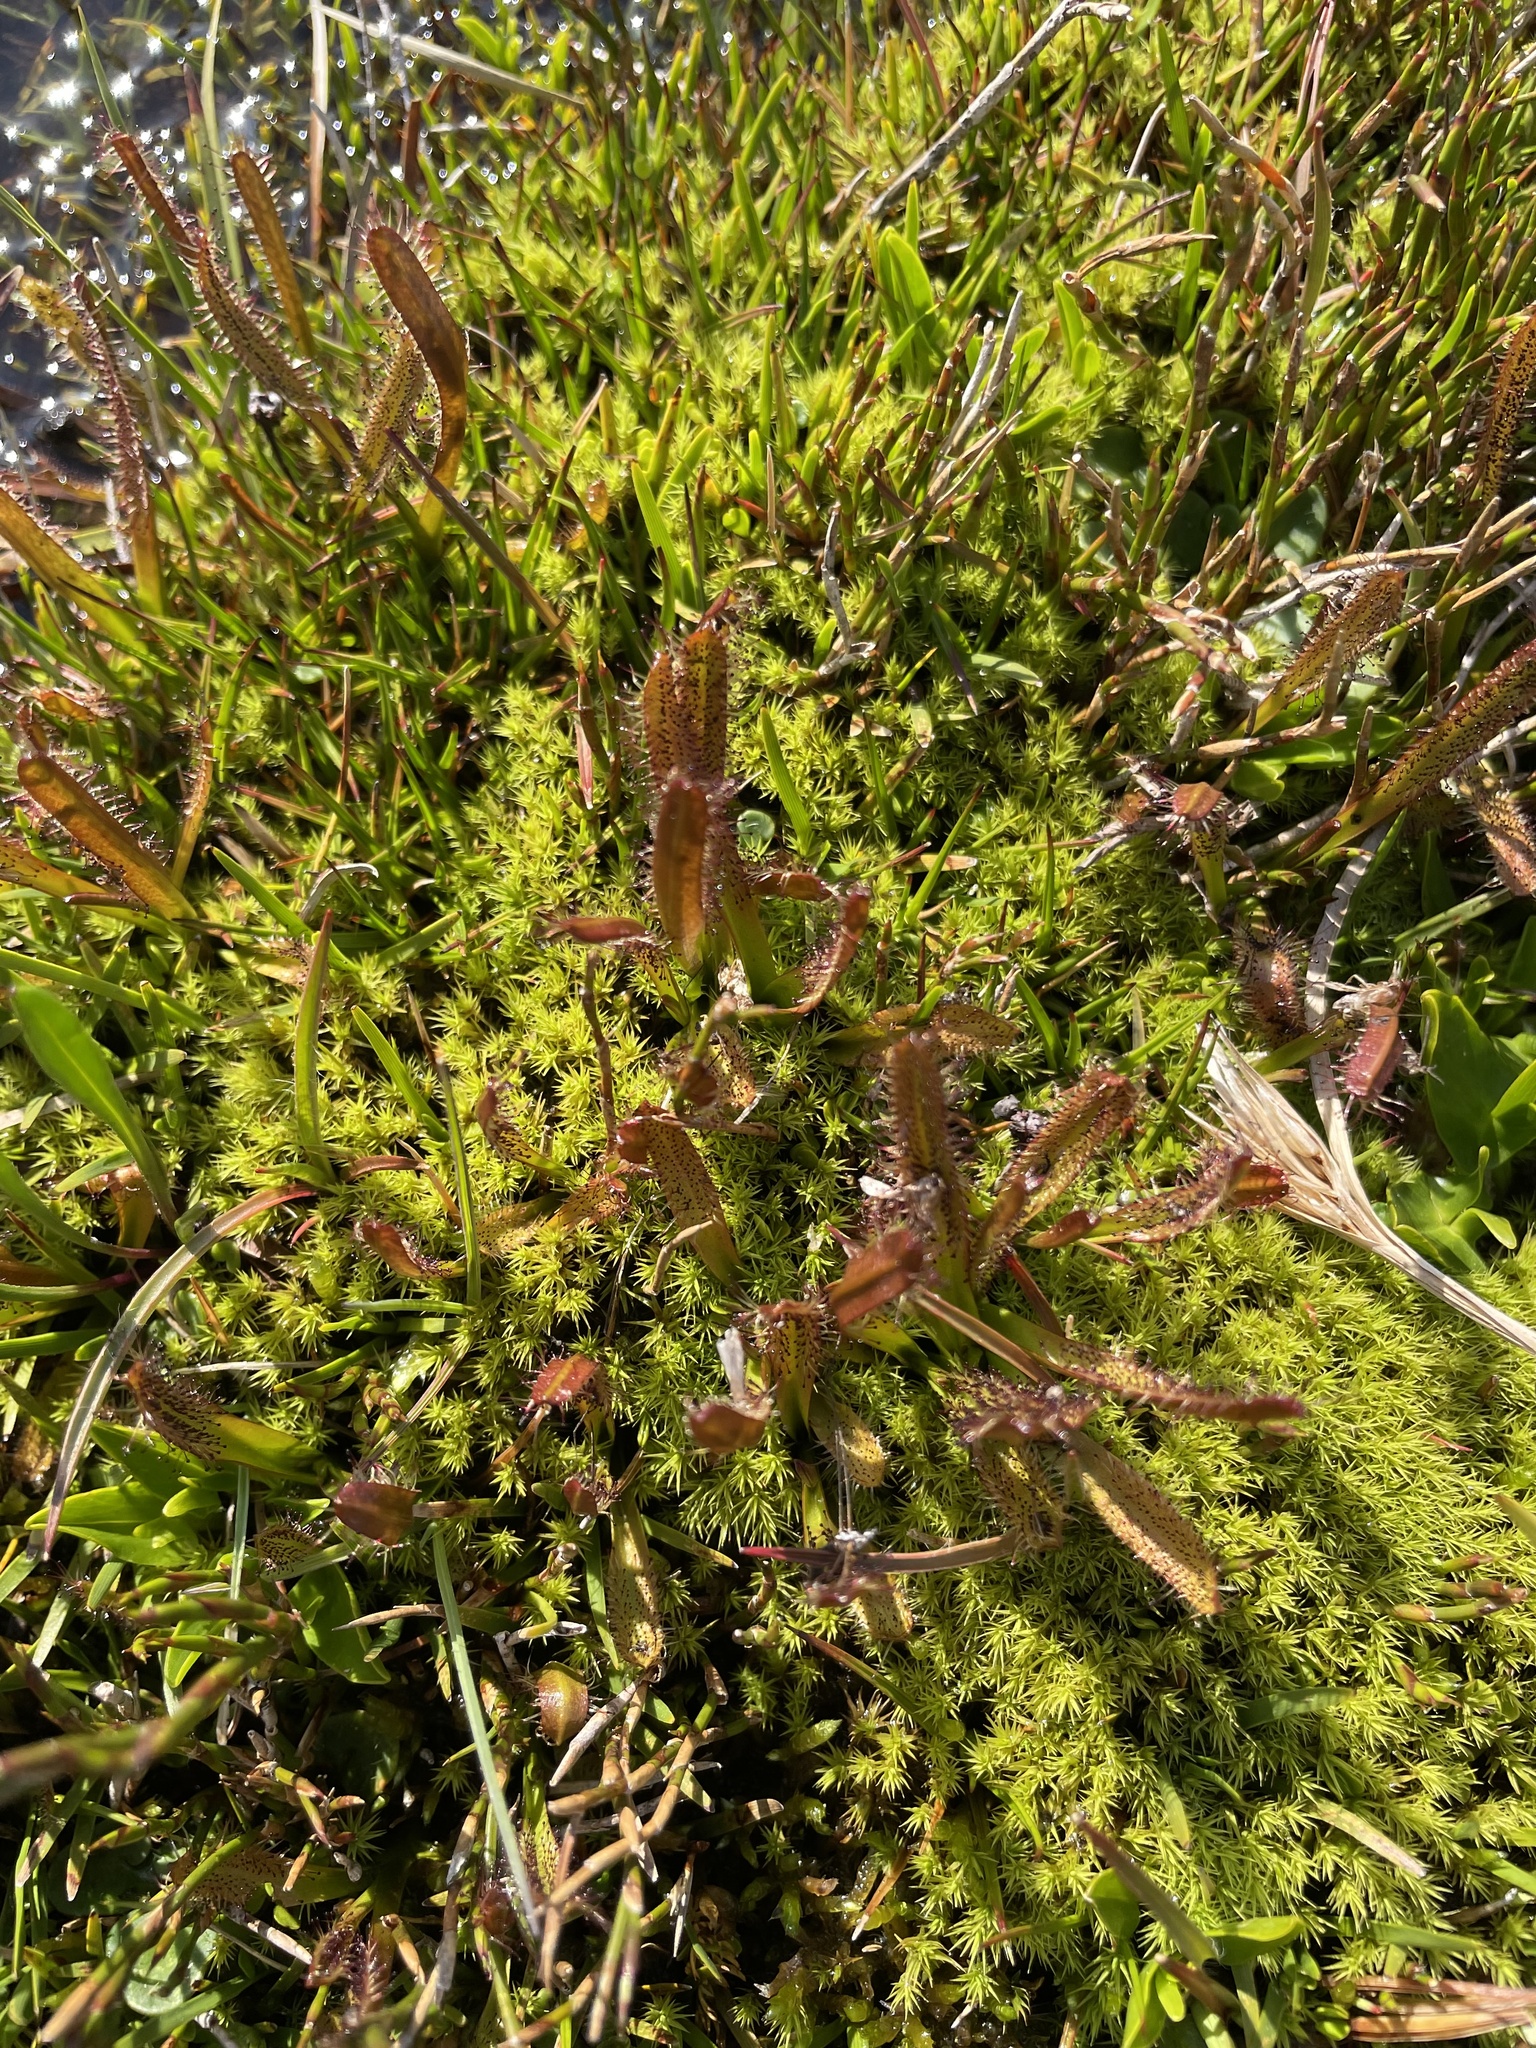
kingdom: Plantae
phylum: Tracheophyta
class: Magnoliopsida
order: Caryophyllales
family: Droseraceae
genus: Drosera
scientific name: Drosera arcturi
